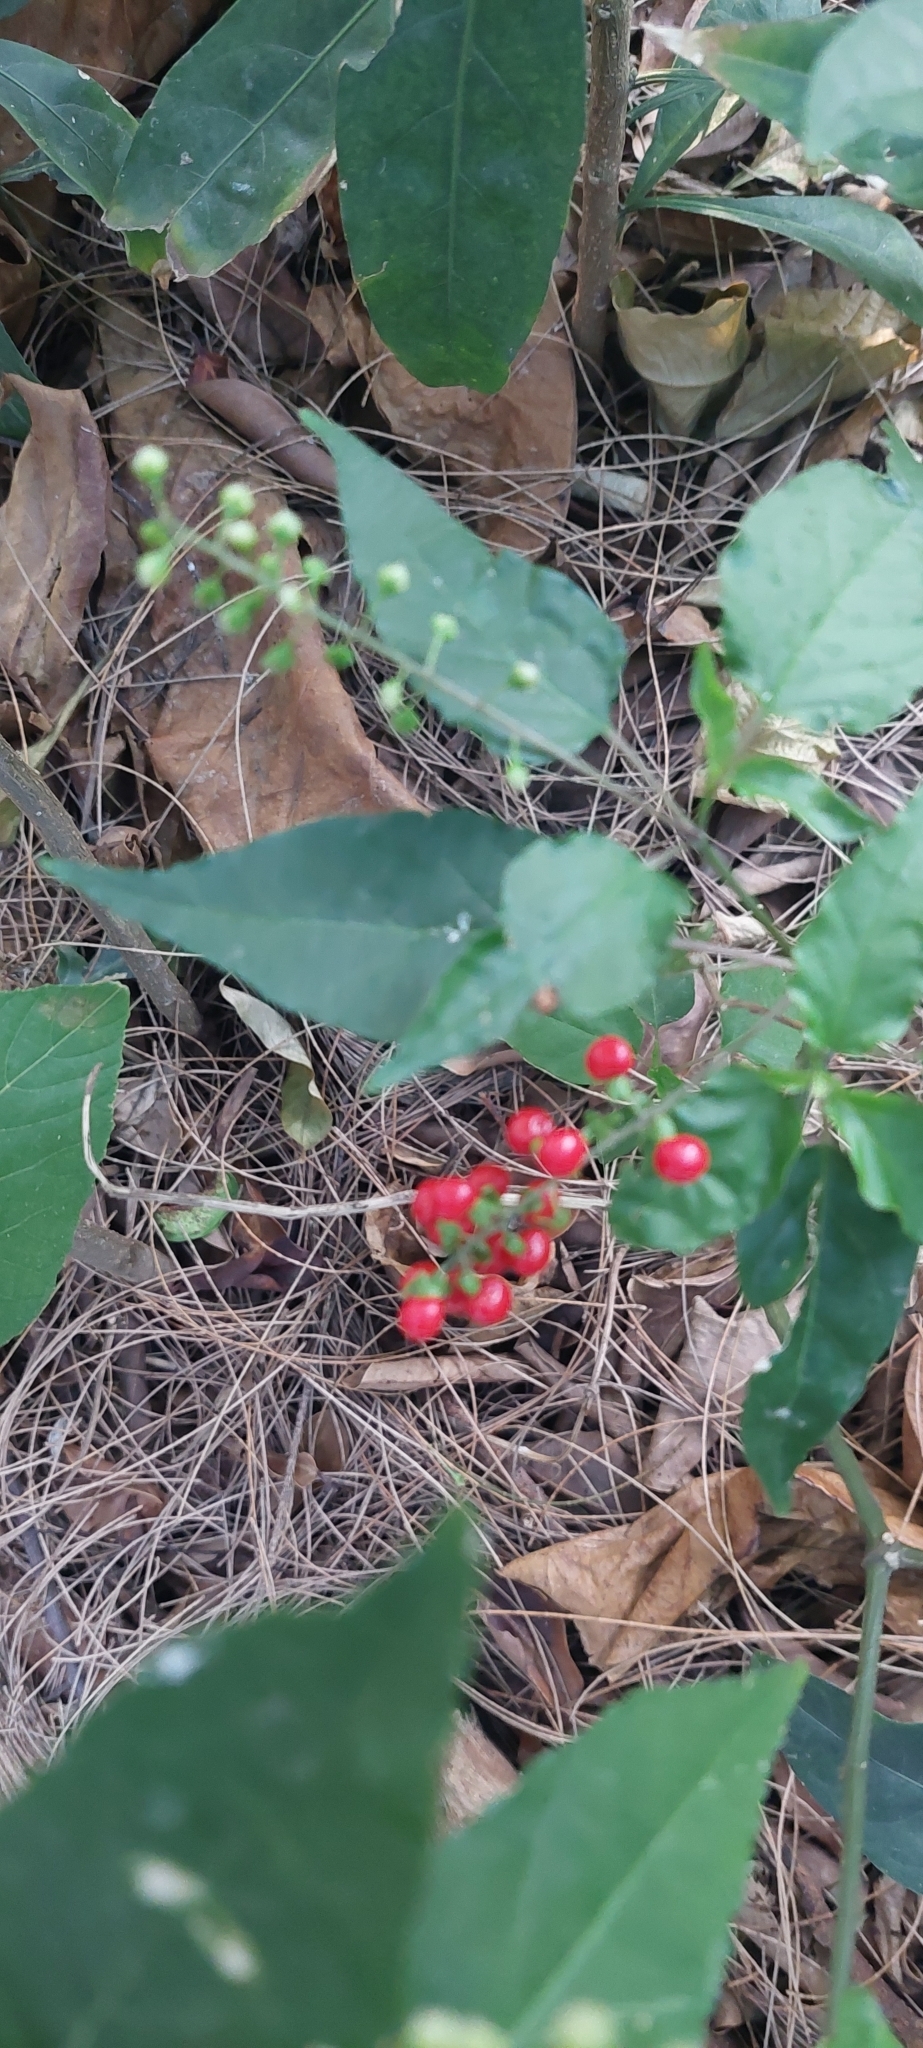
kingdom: Plantae
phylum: Tracheophyta
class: Magnoliopsida
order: Caryophyllales
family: Phytolaccaceae
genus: Rivina
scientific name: Rivina humilis
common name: Rougeplant
